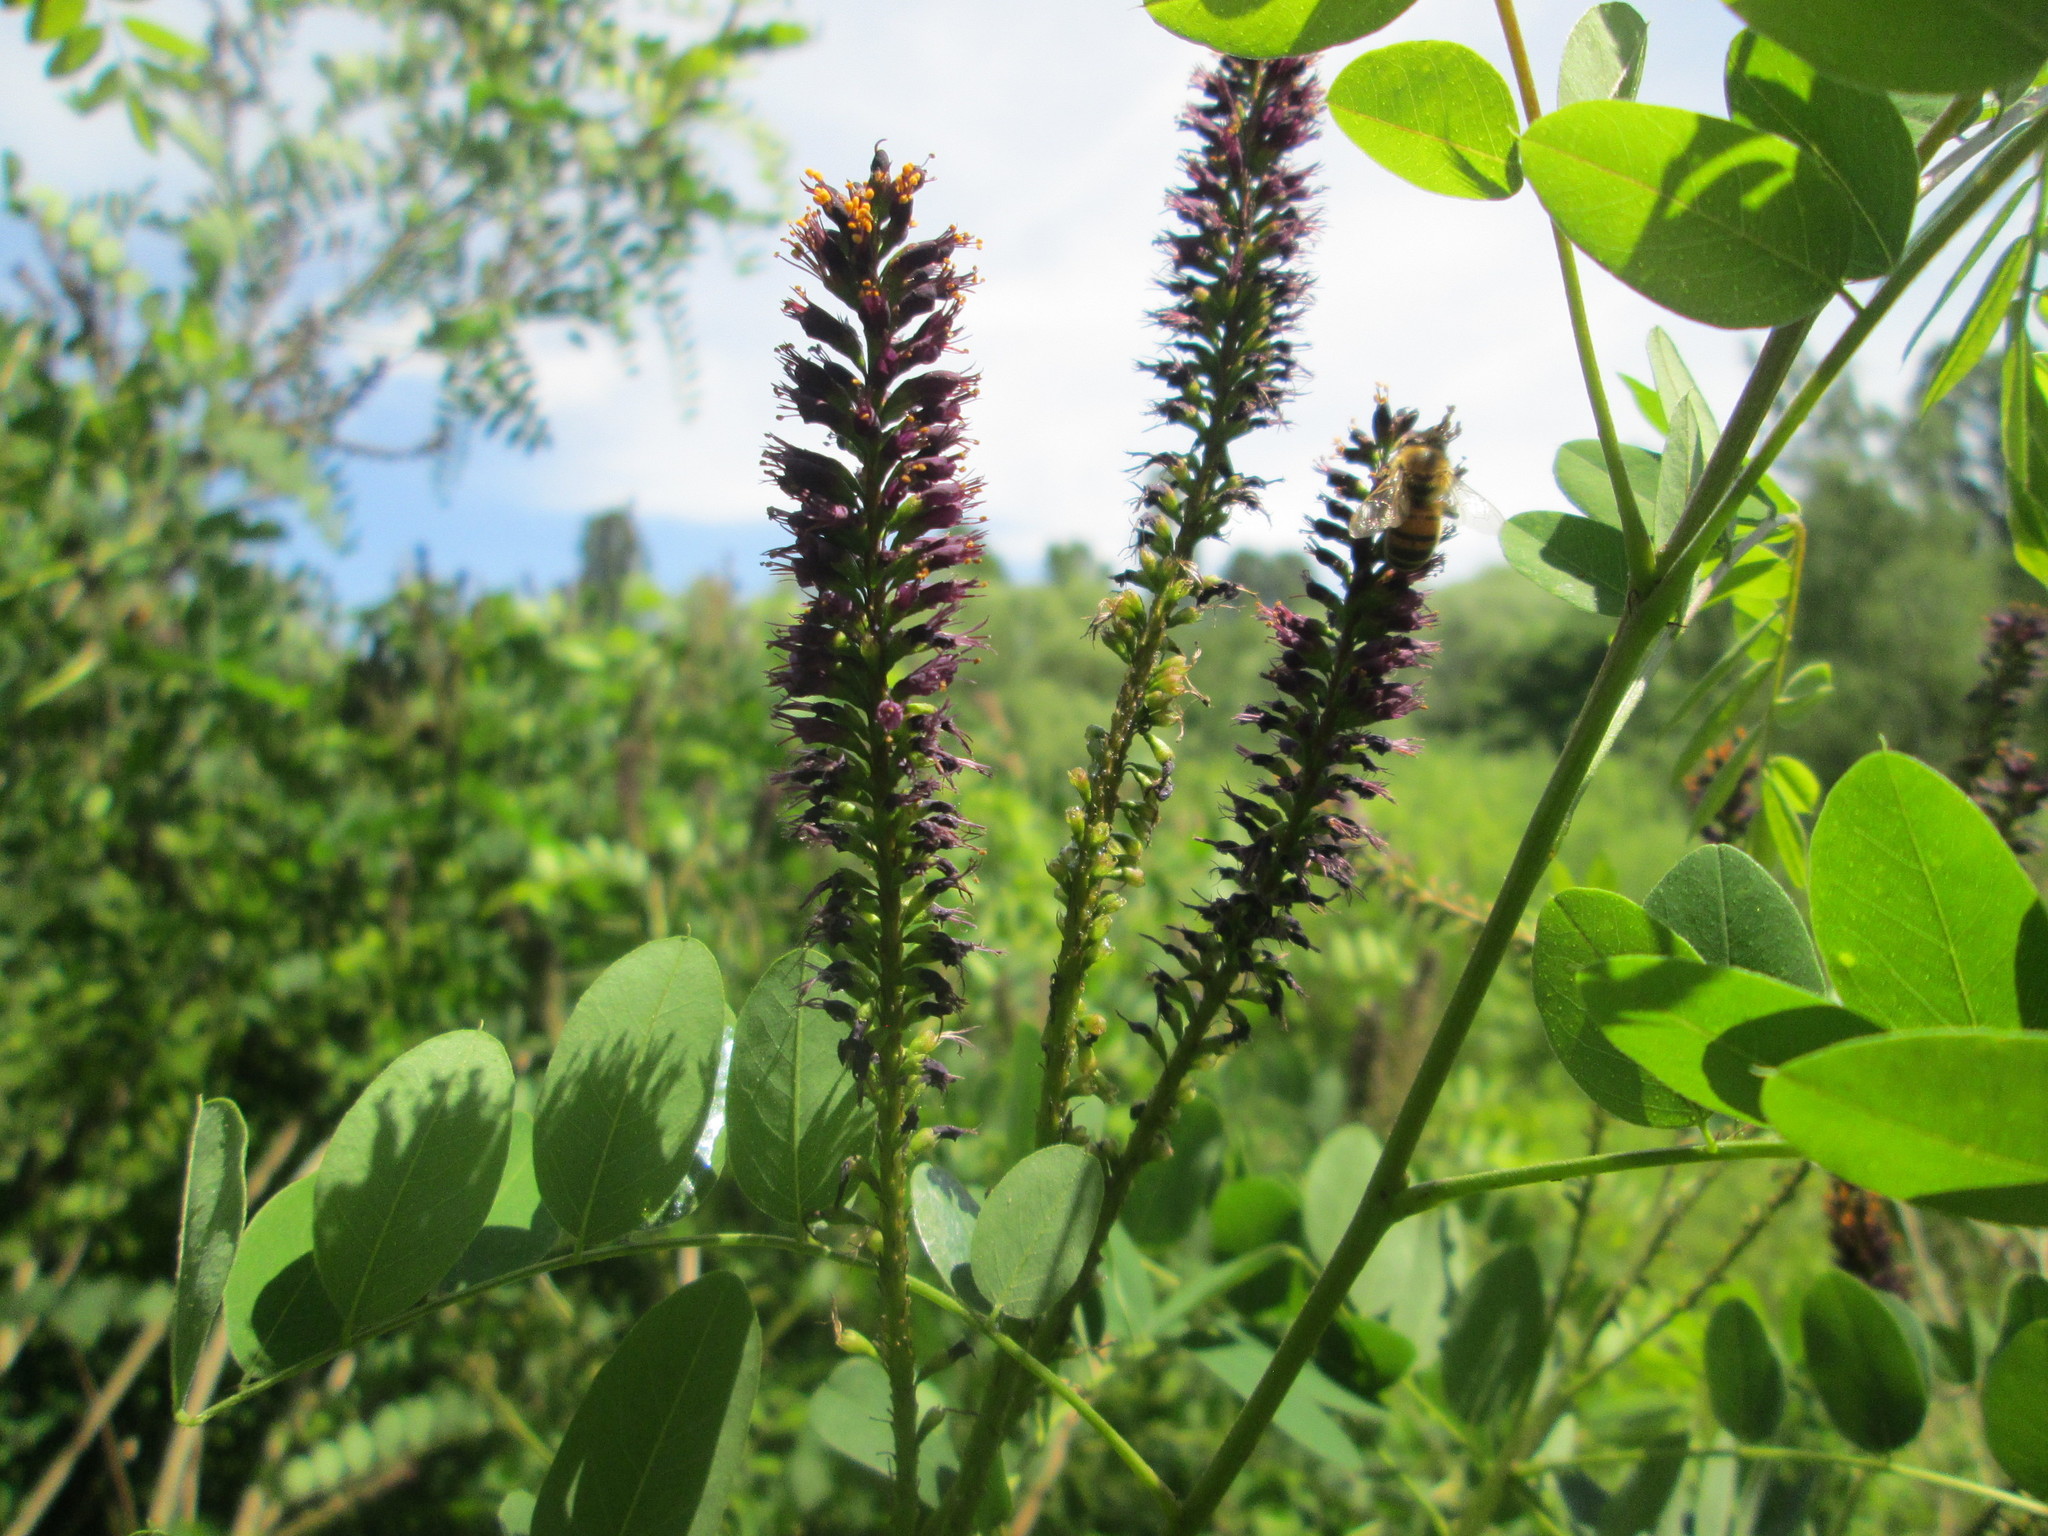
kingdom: Plantae
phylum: Tracheophyta
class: Magnoliopsida
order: Fabales
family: Fabaceae
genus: Amorpha
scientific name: Amorpha fruticosa
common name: False indigo
